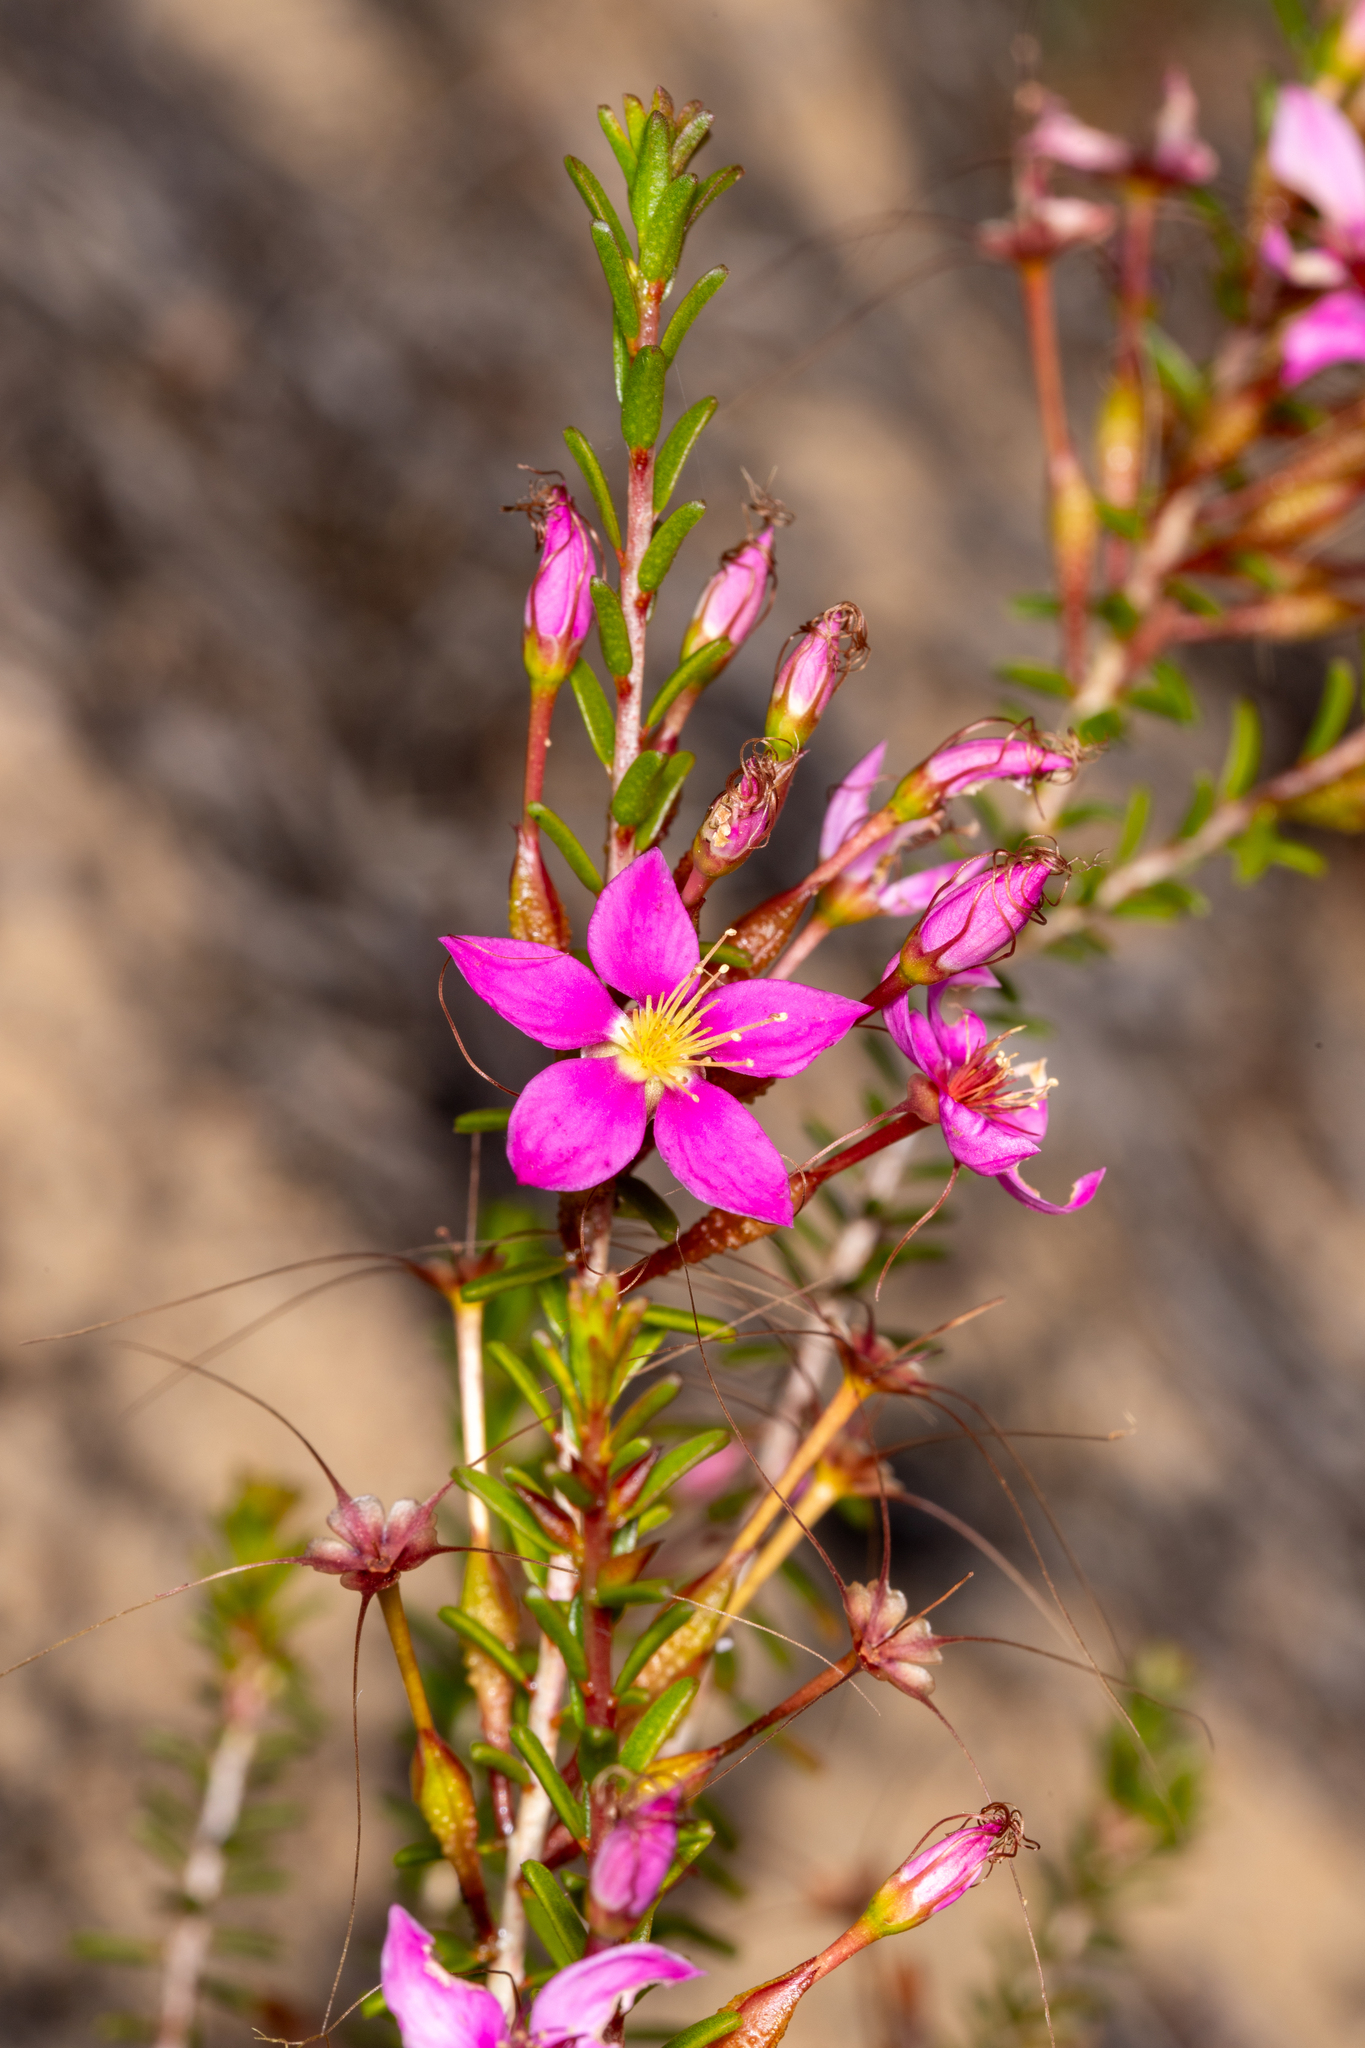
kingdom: Plantae
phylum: Tracheophyta
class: Magnoliopsida
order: Myrtales
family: Myrtaceae
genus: Calytrix
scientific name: Calytrix fraseri
